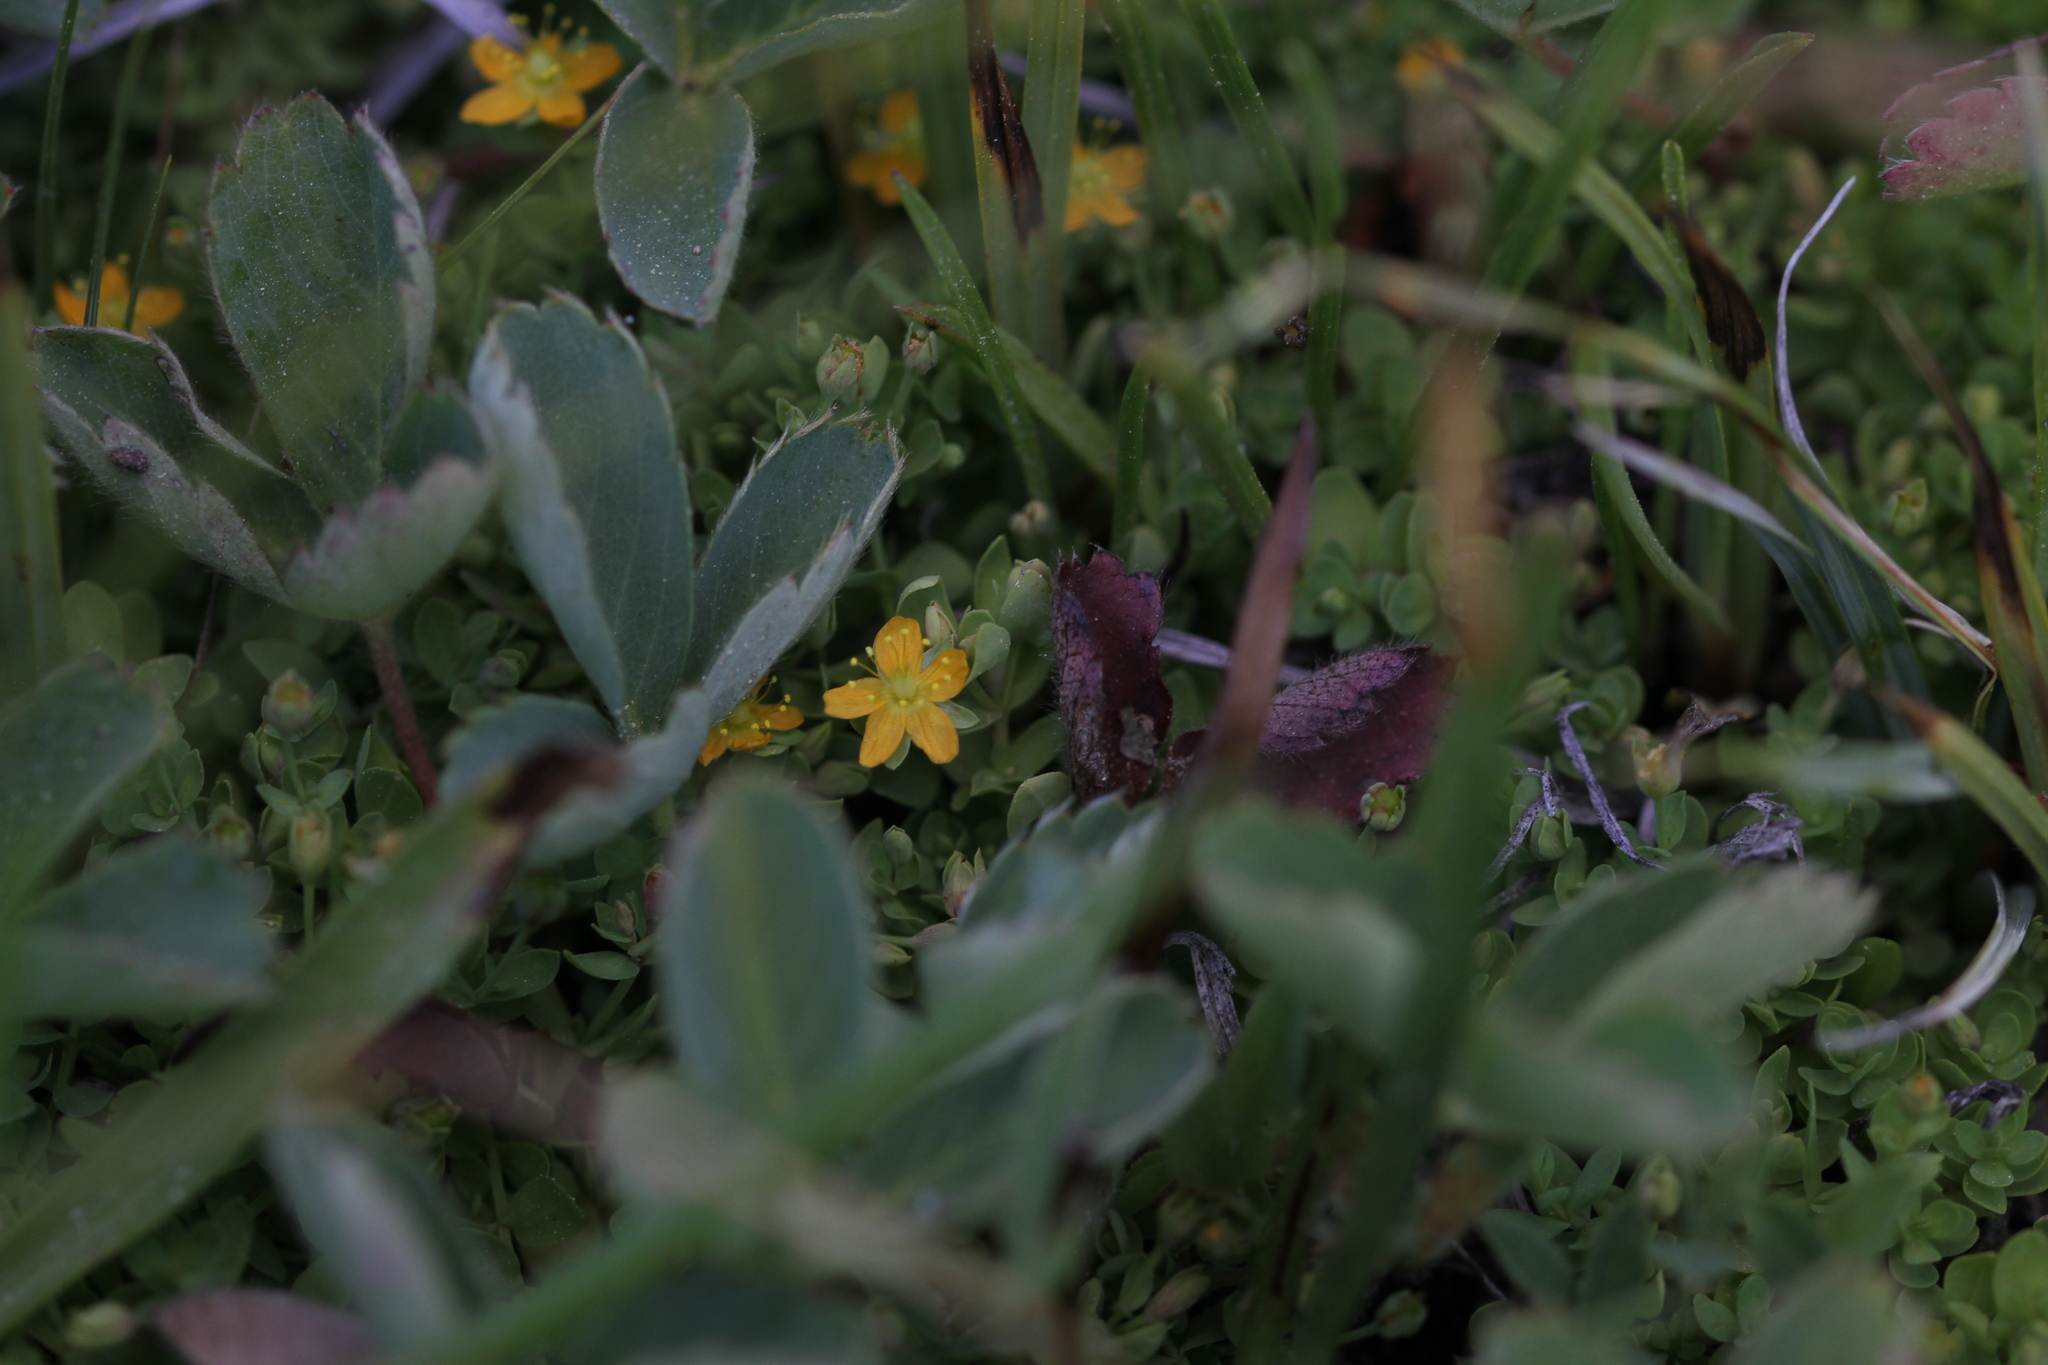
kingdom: Plantae
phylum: Tracheophyta
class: Magnoliopsida
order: Malpighiales
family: Hypericaceae
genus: Hypericum
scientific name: Hypericum anagalloides
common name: Bog st. john's-wort
